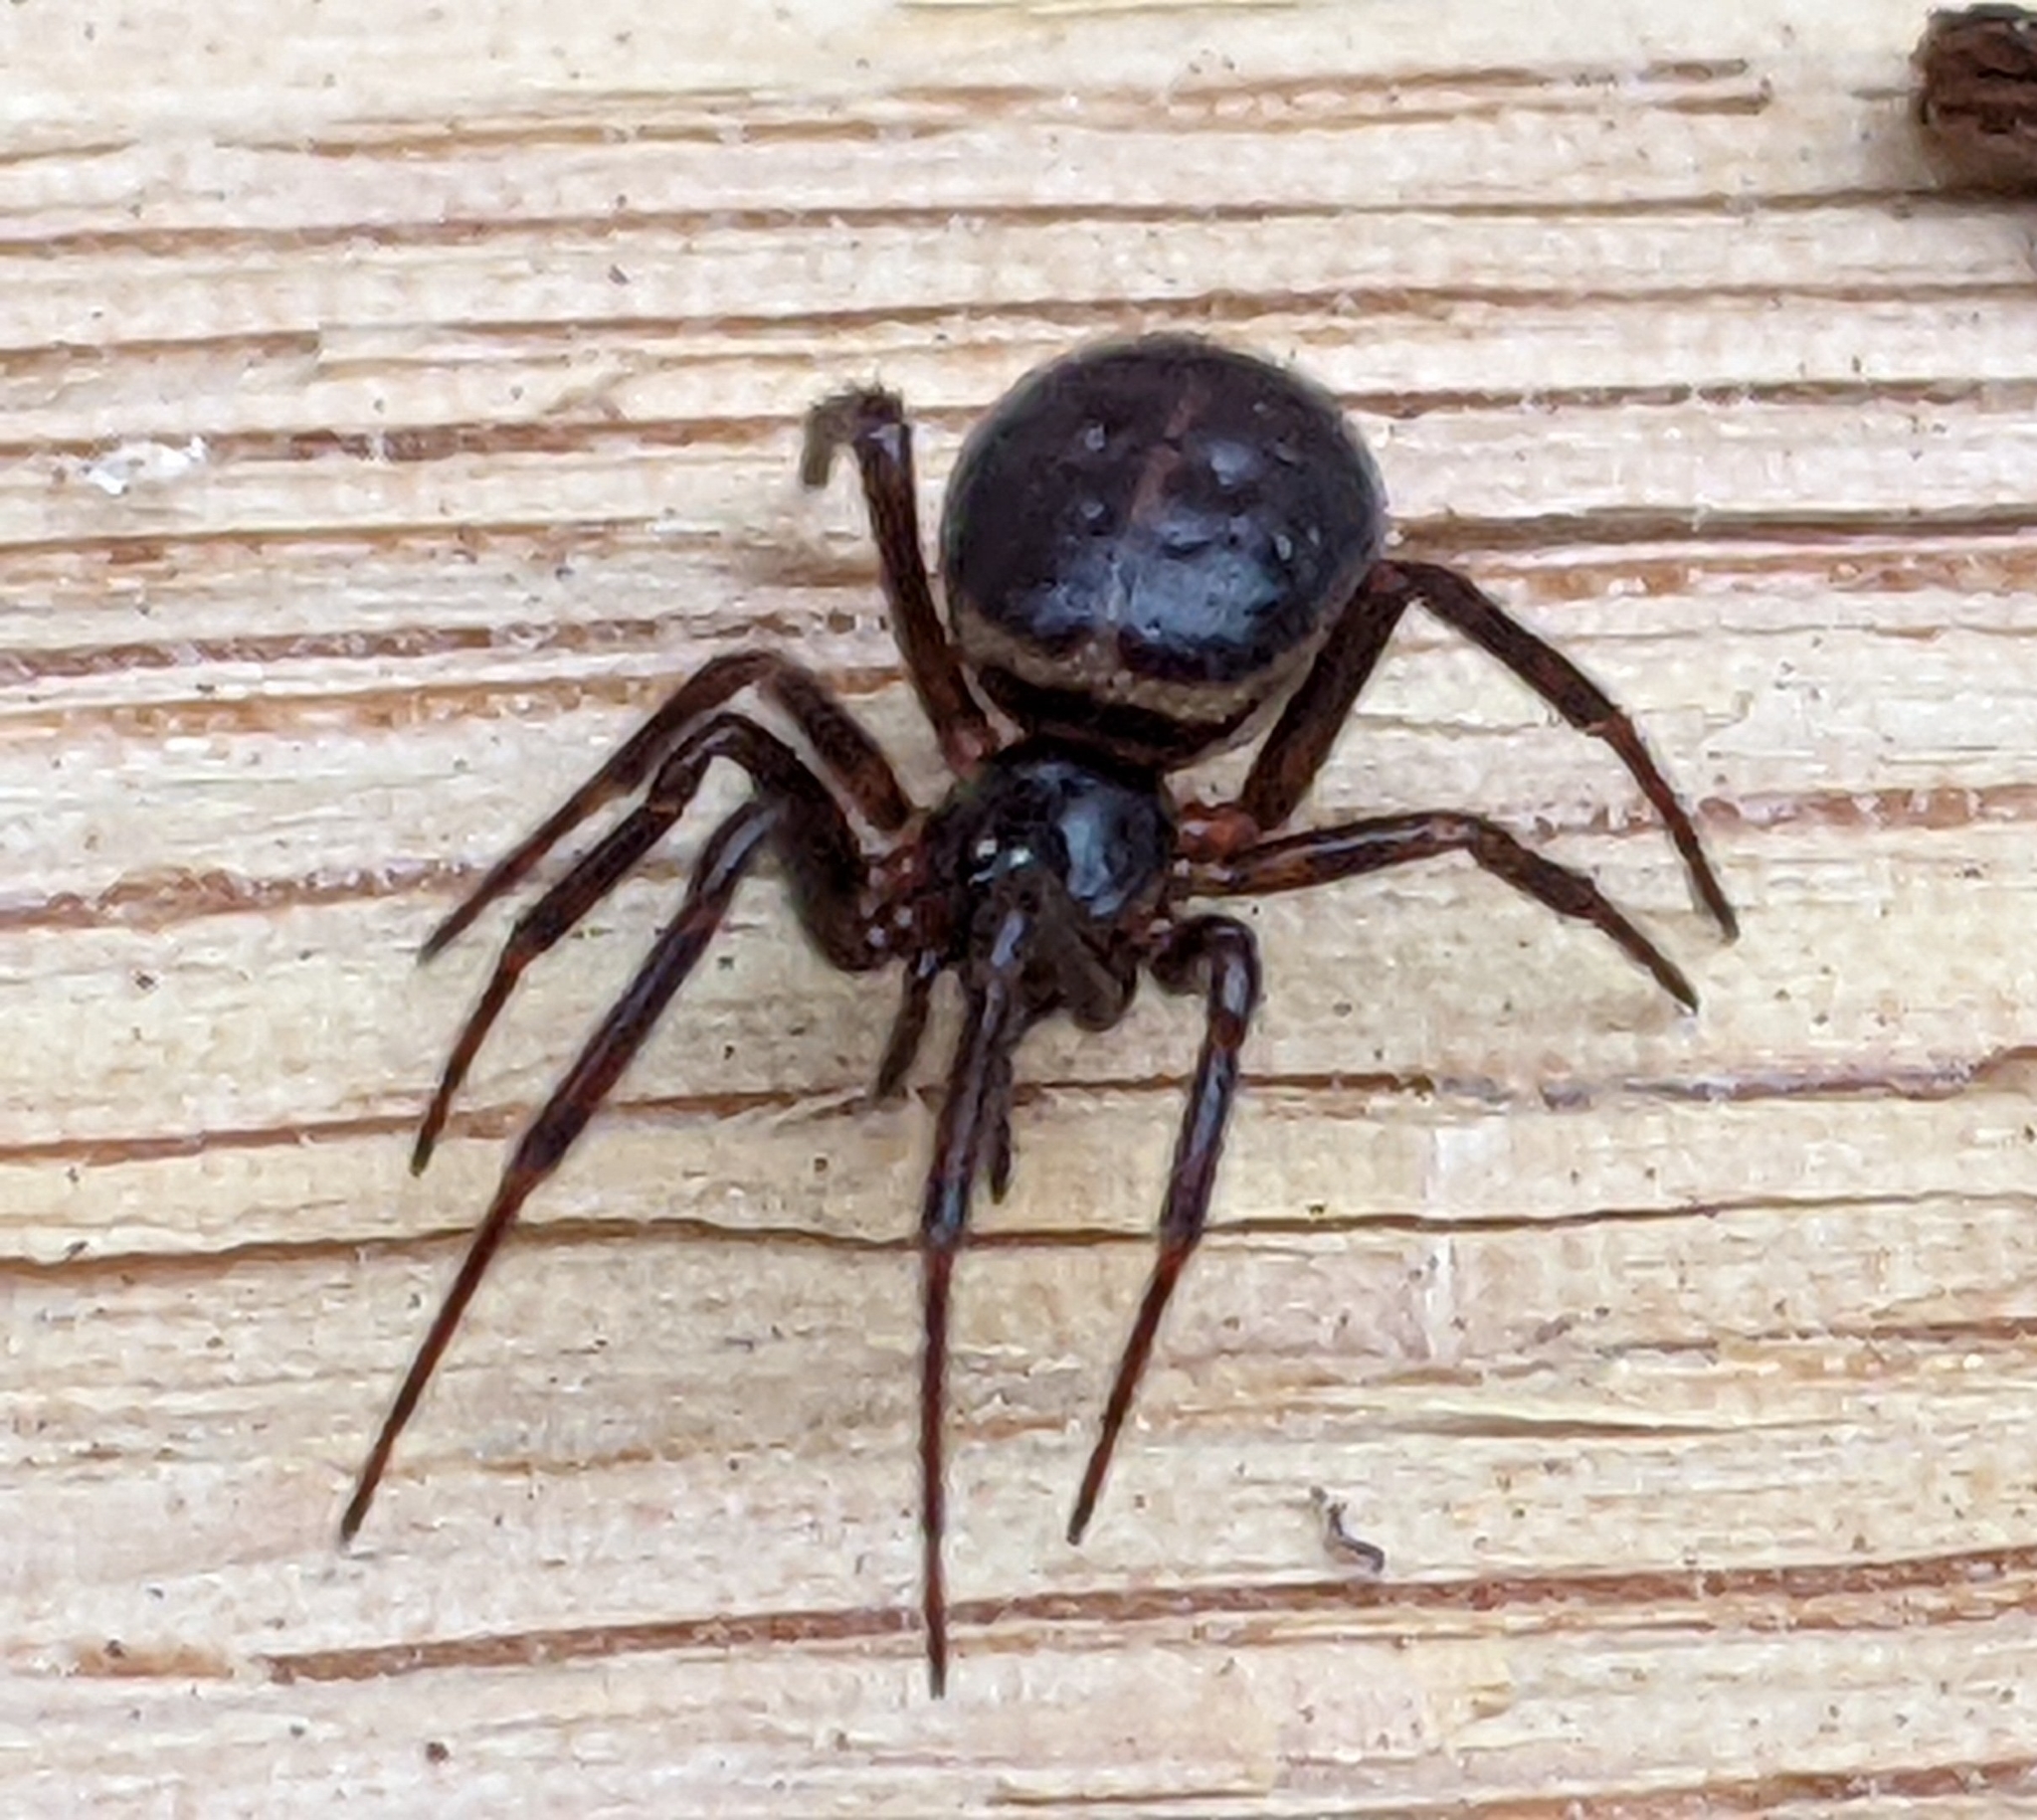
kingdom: Animalia
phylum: Arthropoda
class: Arachnida
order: Araneae
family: Theridiidae
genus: Steatoda
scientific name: Steatoda borealis
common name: Boreal combfoot
